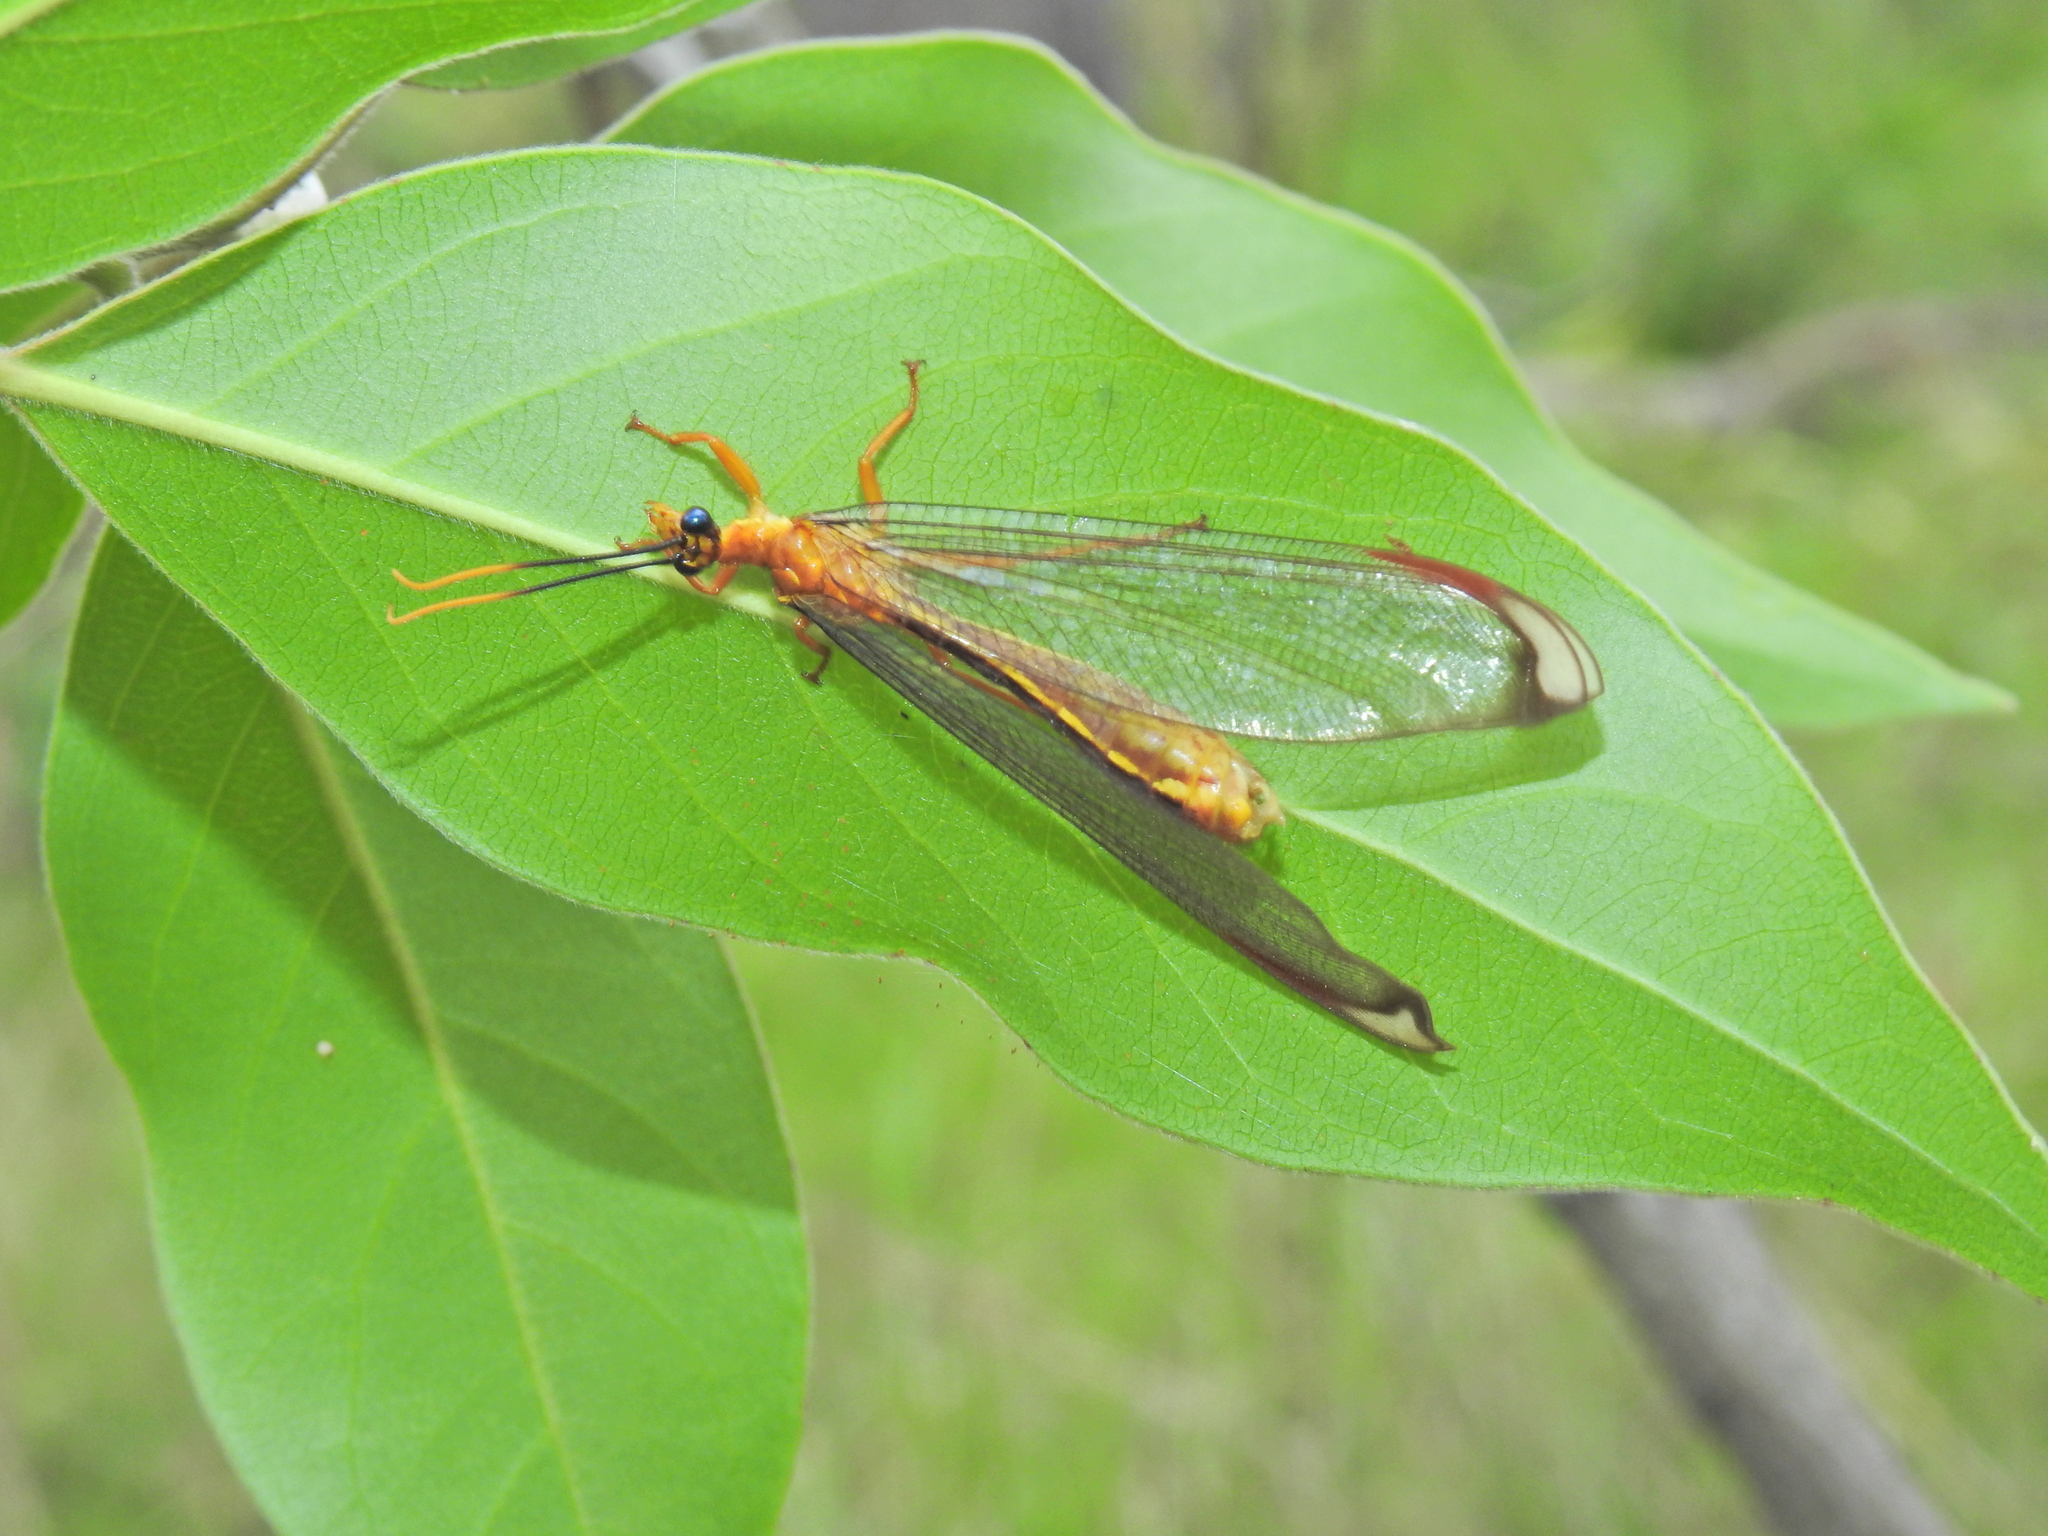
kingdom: Animalia
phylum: Arthropoda
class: Insecta
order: Neuroptera
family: Nymphidae
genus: Nymphes
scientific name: Nymphes myrmeleonoides
